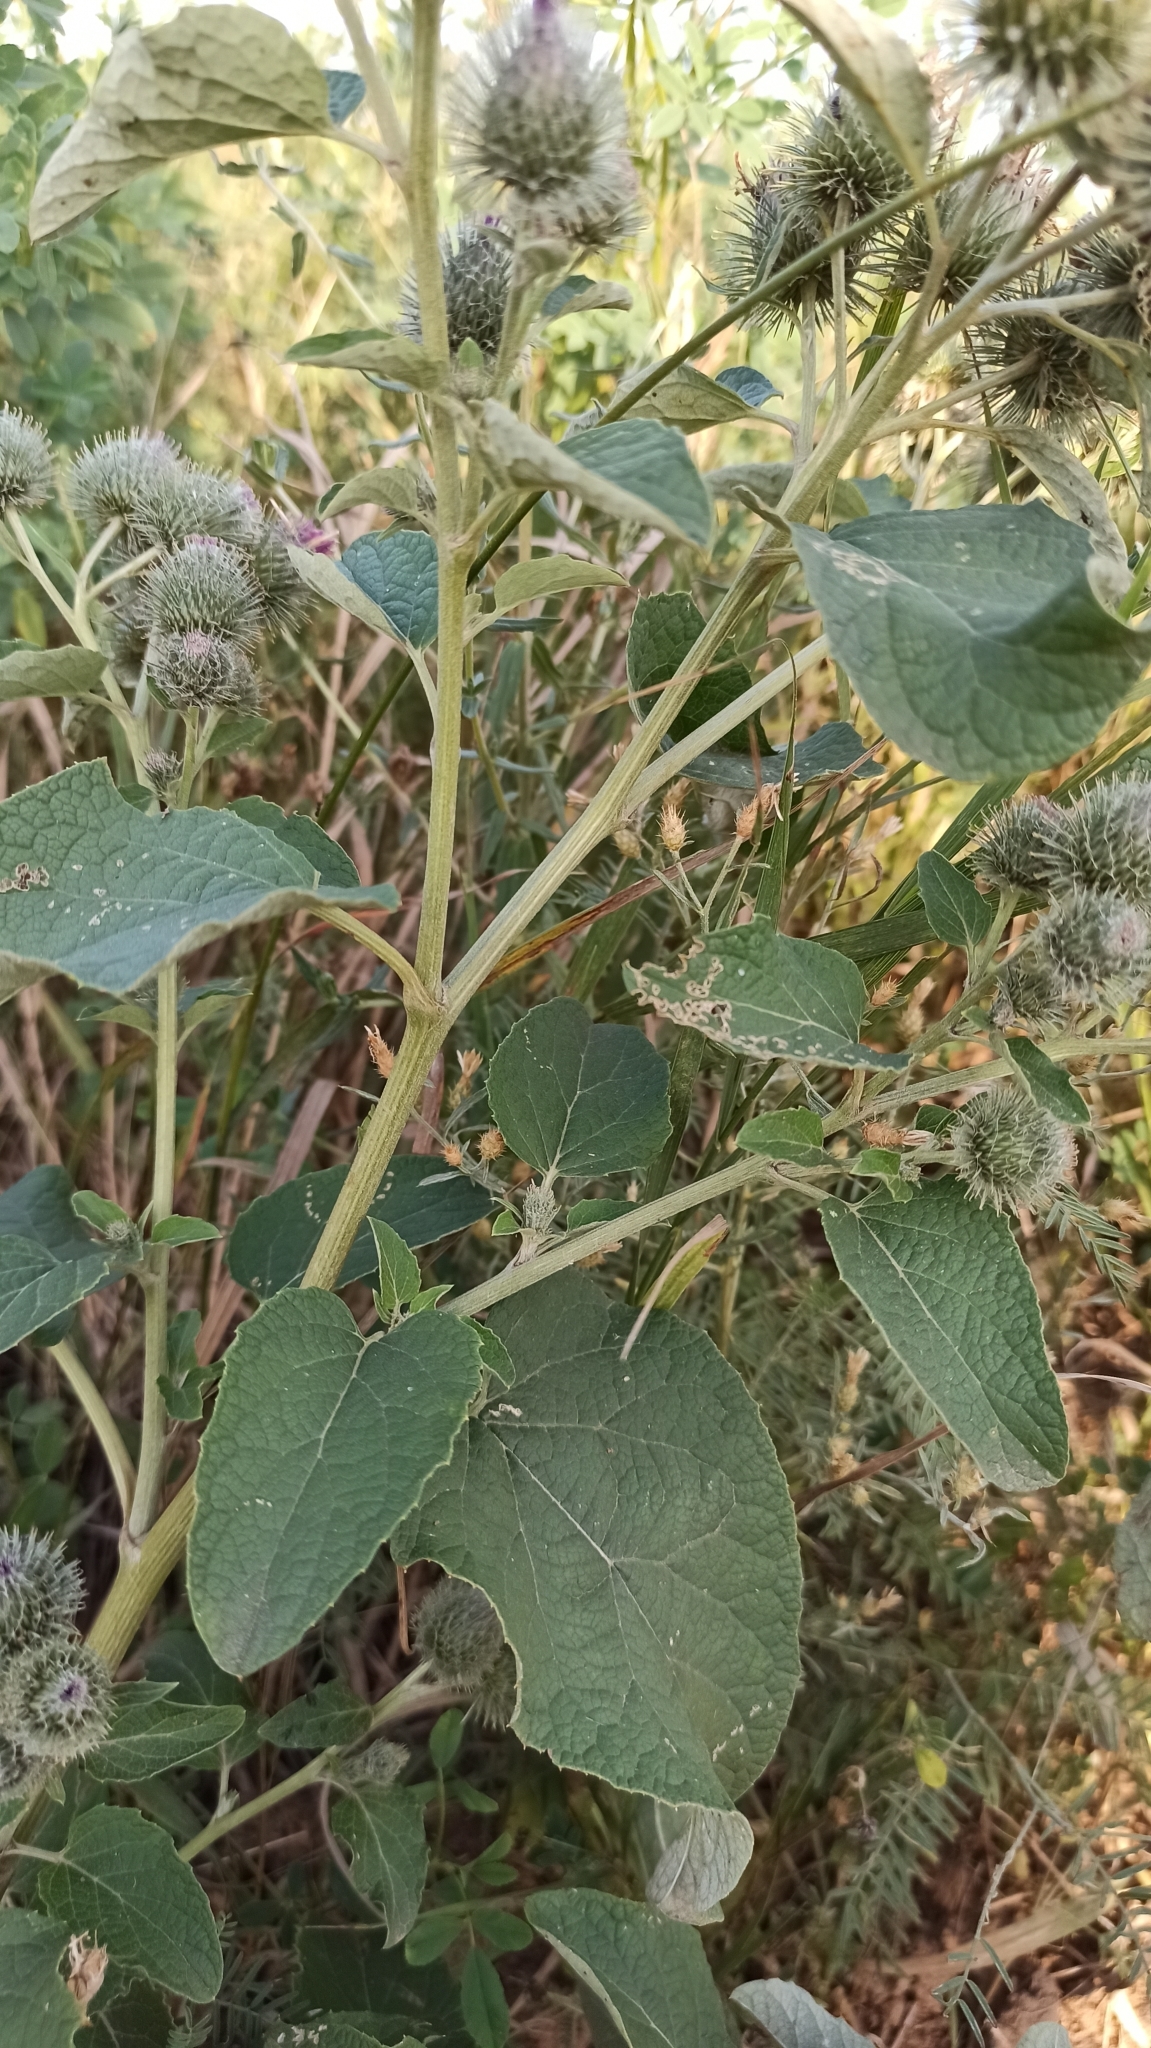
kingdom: Plantae
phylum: Tracheophyta
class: Magnoliopsida
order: Asterales
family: Asteraceae
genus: Arctium
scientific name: Arctium tomentosum
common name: Woolly burdock
